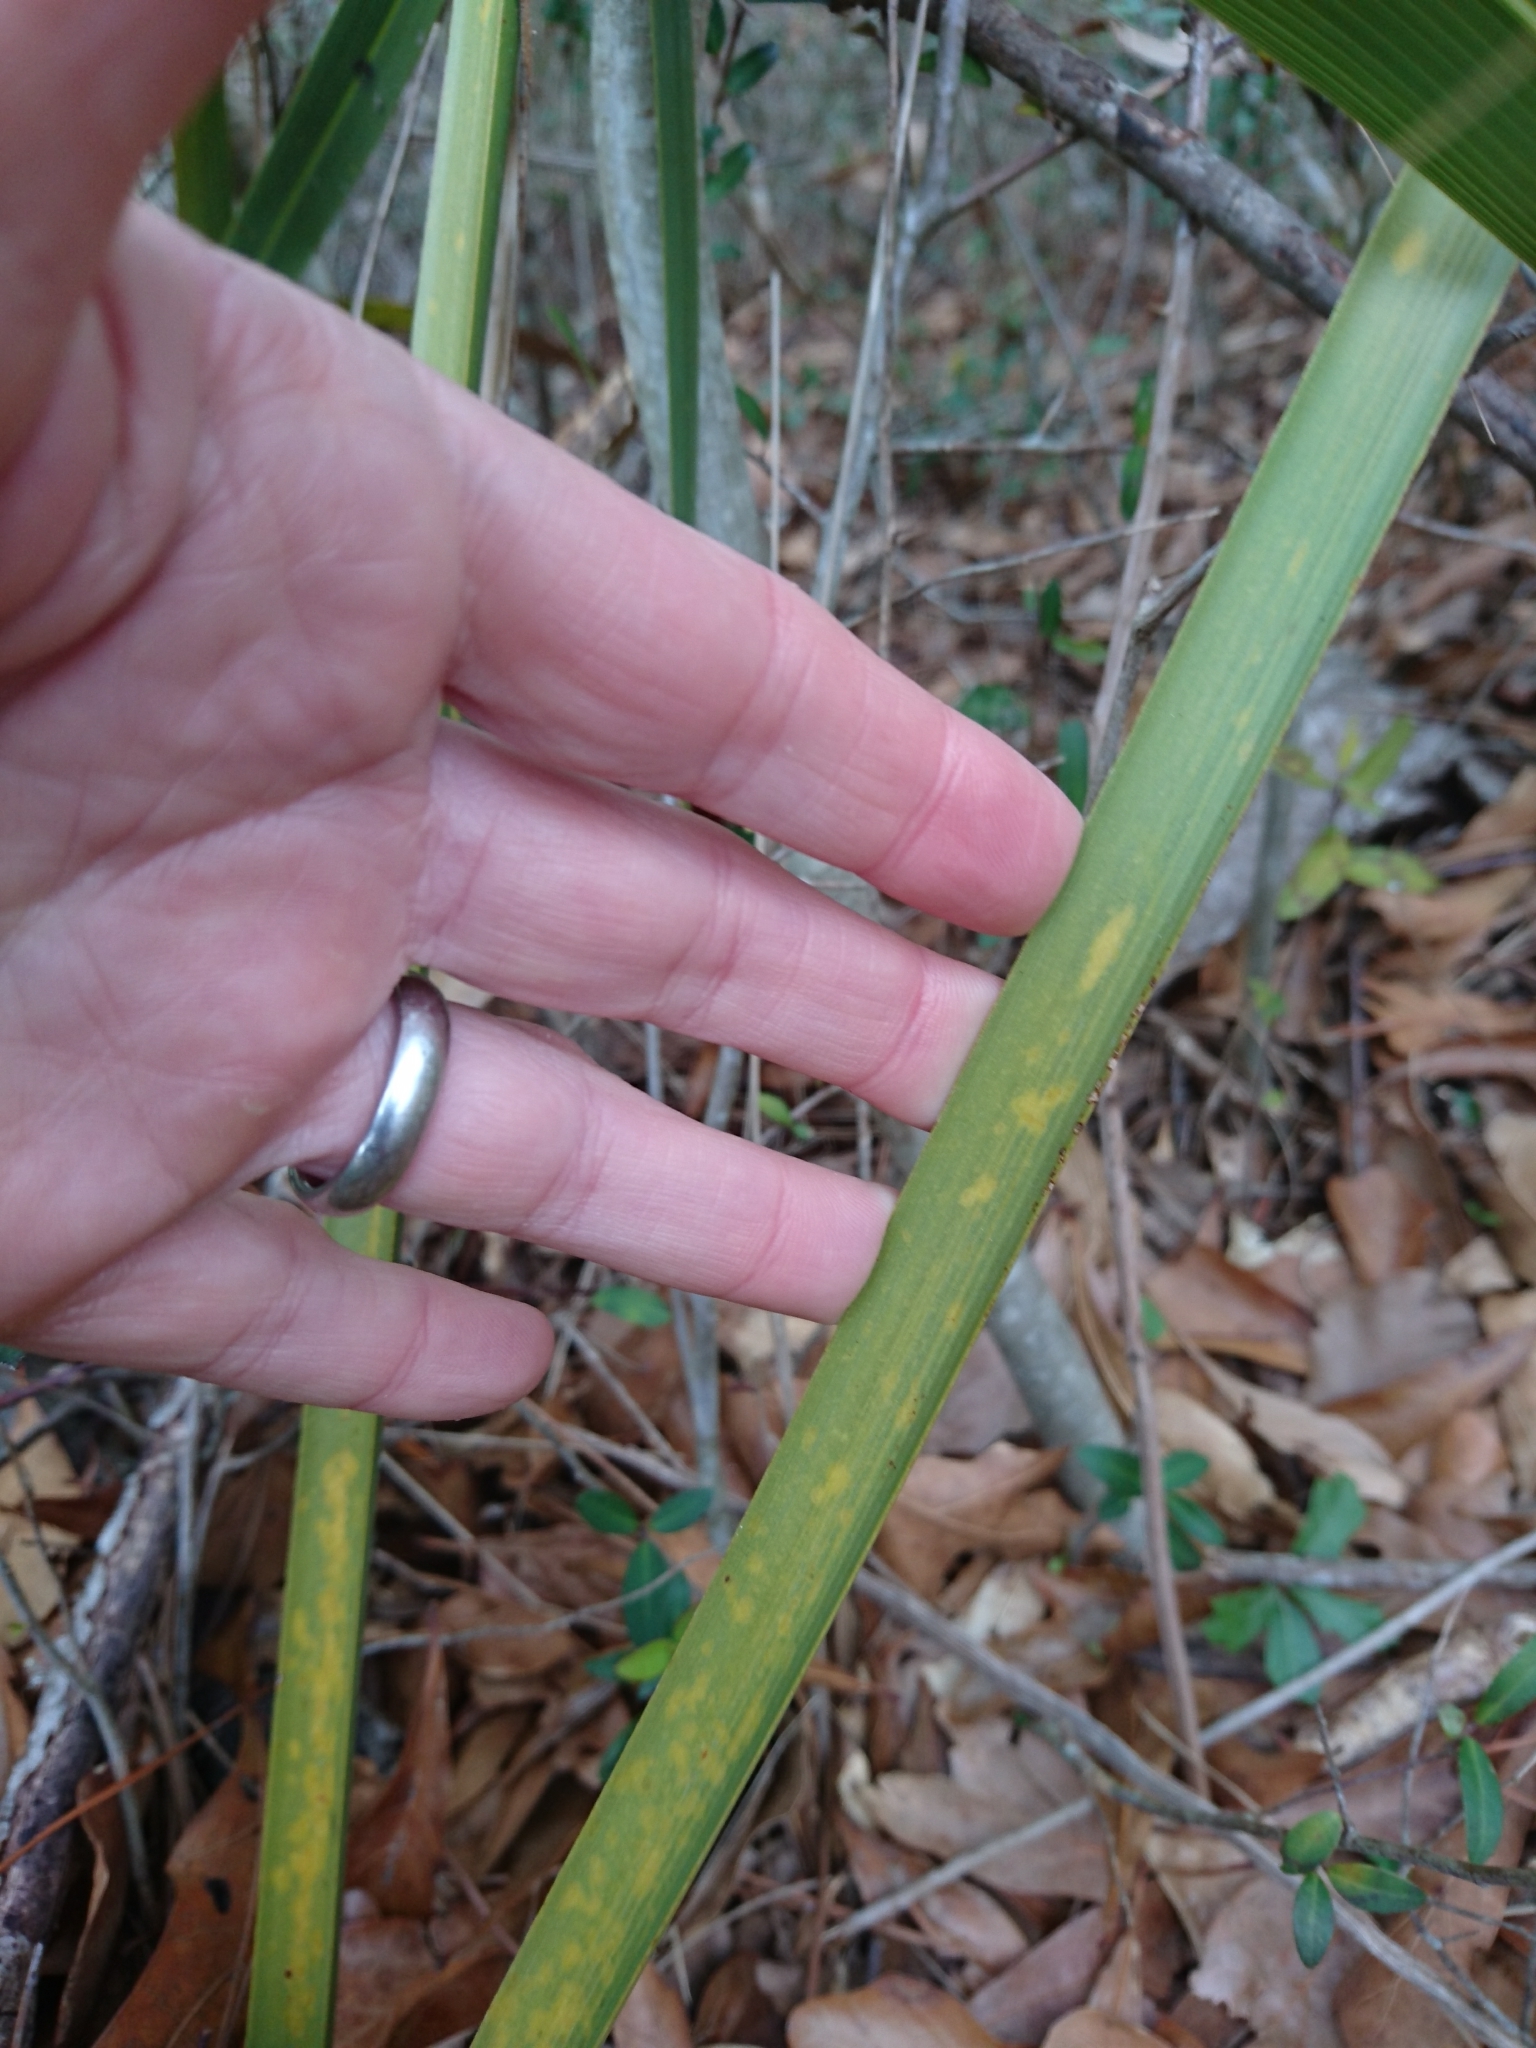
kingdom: Plantae
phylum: Tracheophyta
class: Liliopsida
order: Arecales
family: Arecaceae
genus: Sabal
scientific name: Sabal minor
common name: Dwarf palmetto
